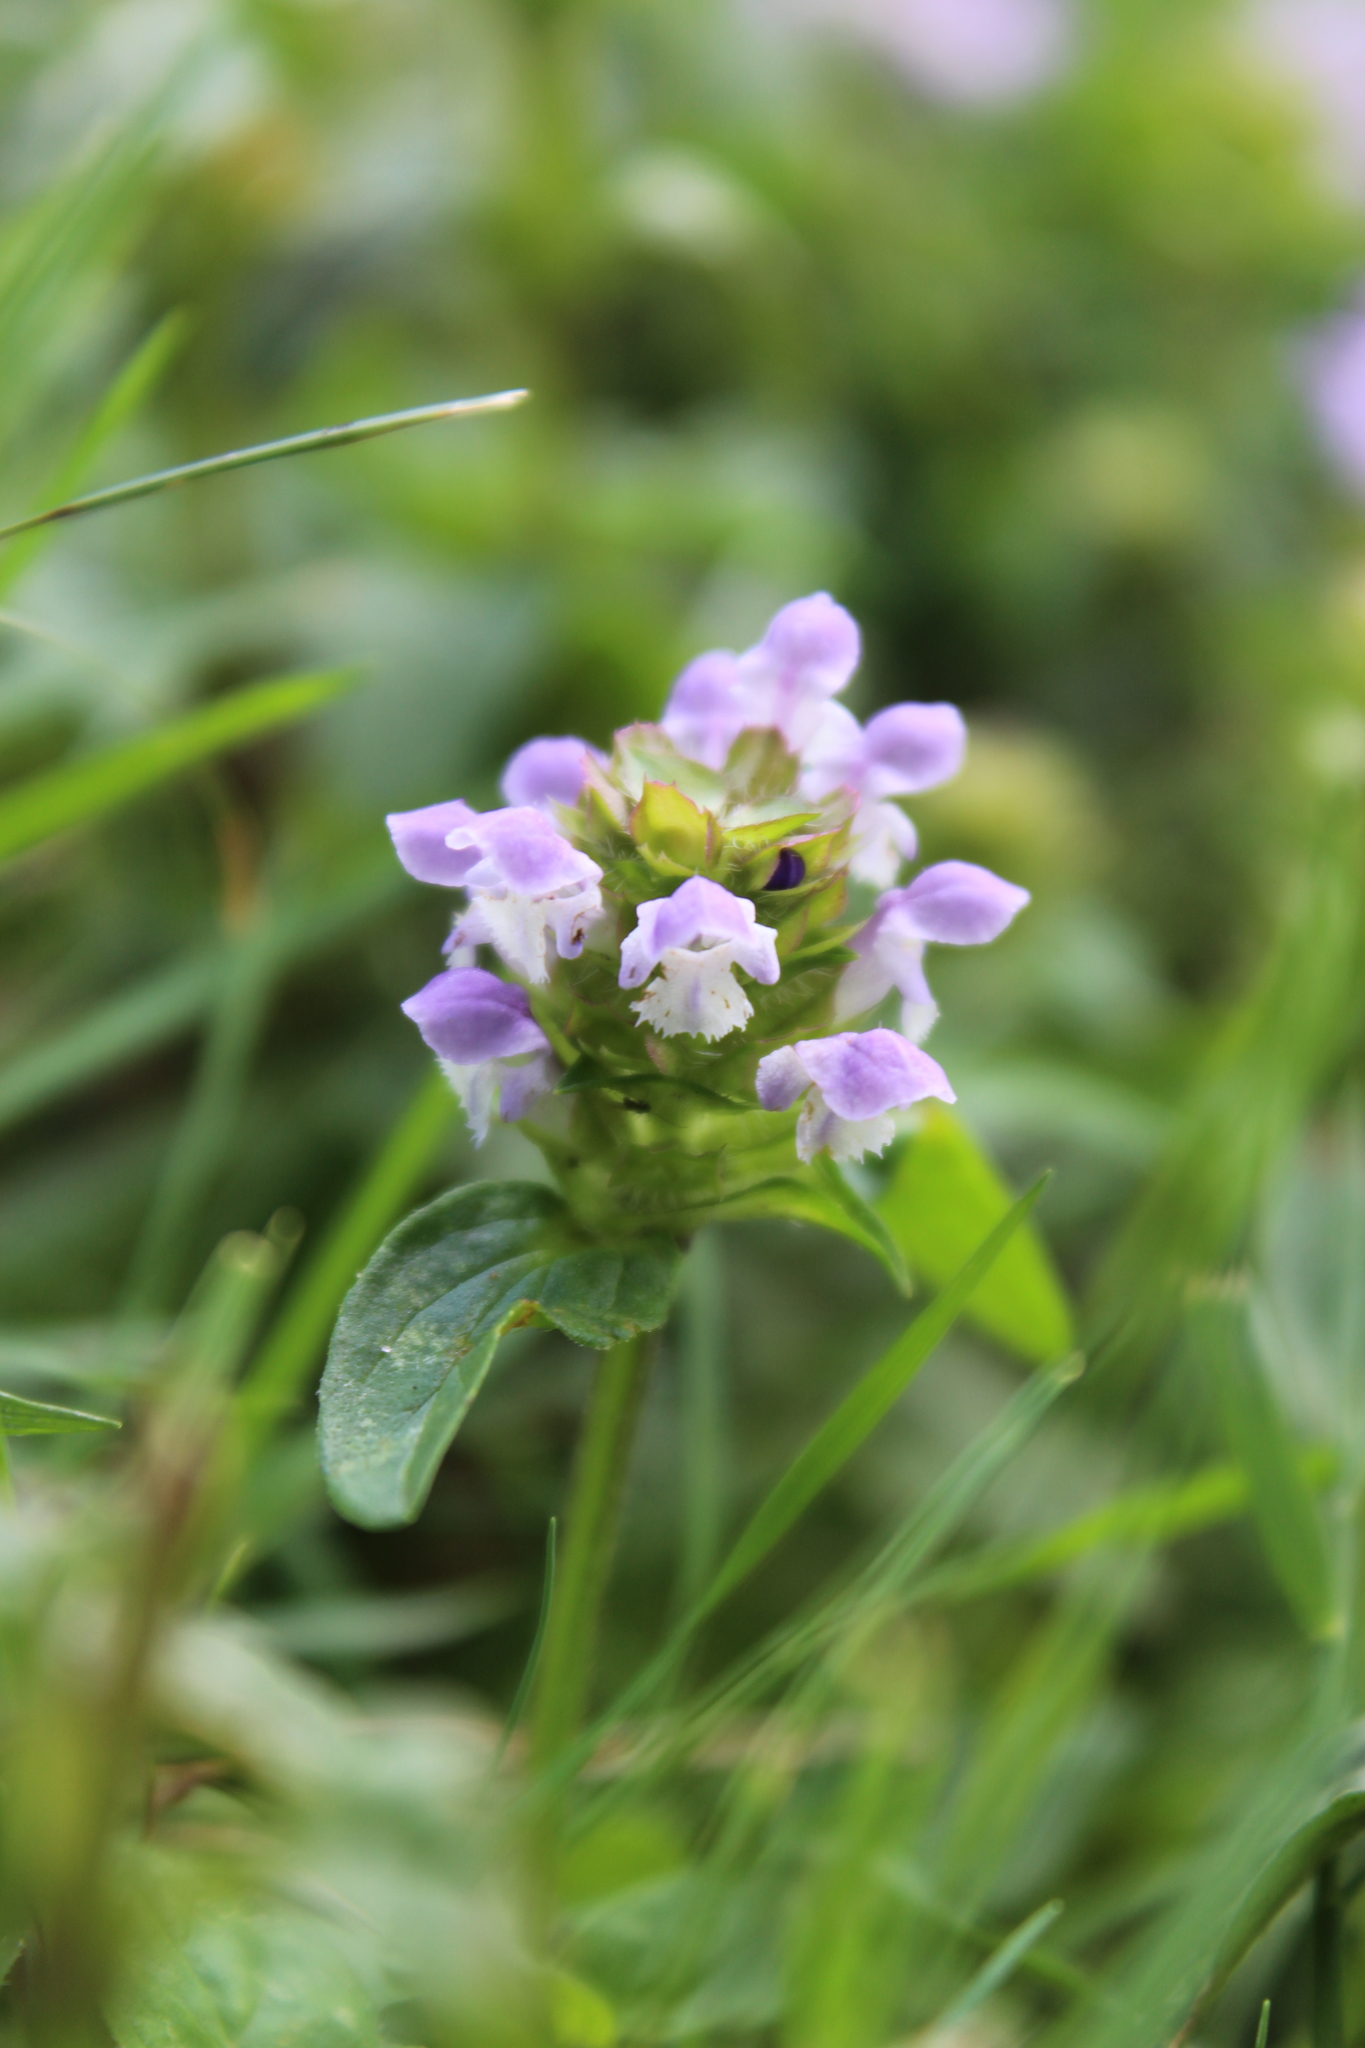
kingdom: Plantae
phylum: Tracheophyta
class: Magnoliopsida
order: Lamiales
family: Lamiaceae
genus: Prunella
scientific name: Prunella vulgaris
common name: Heal-all
